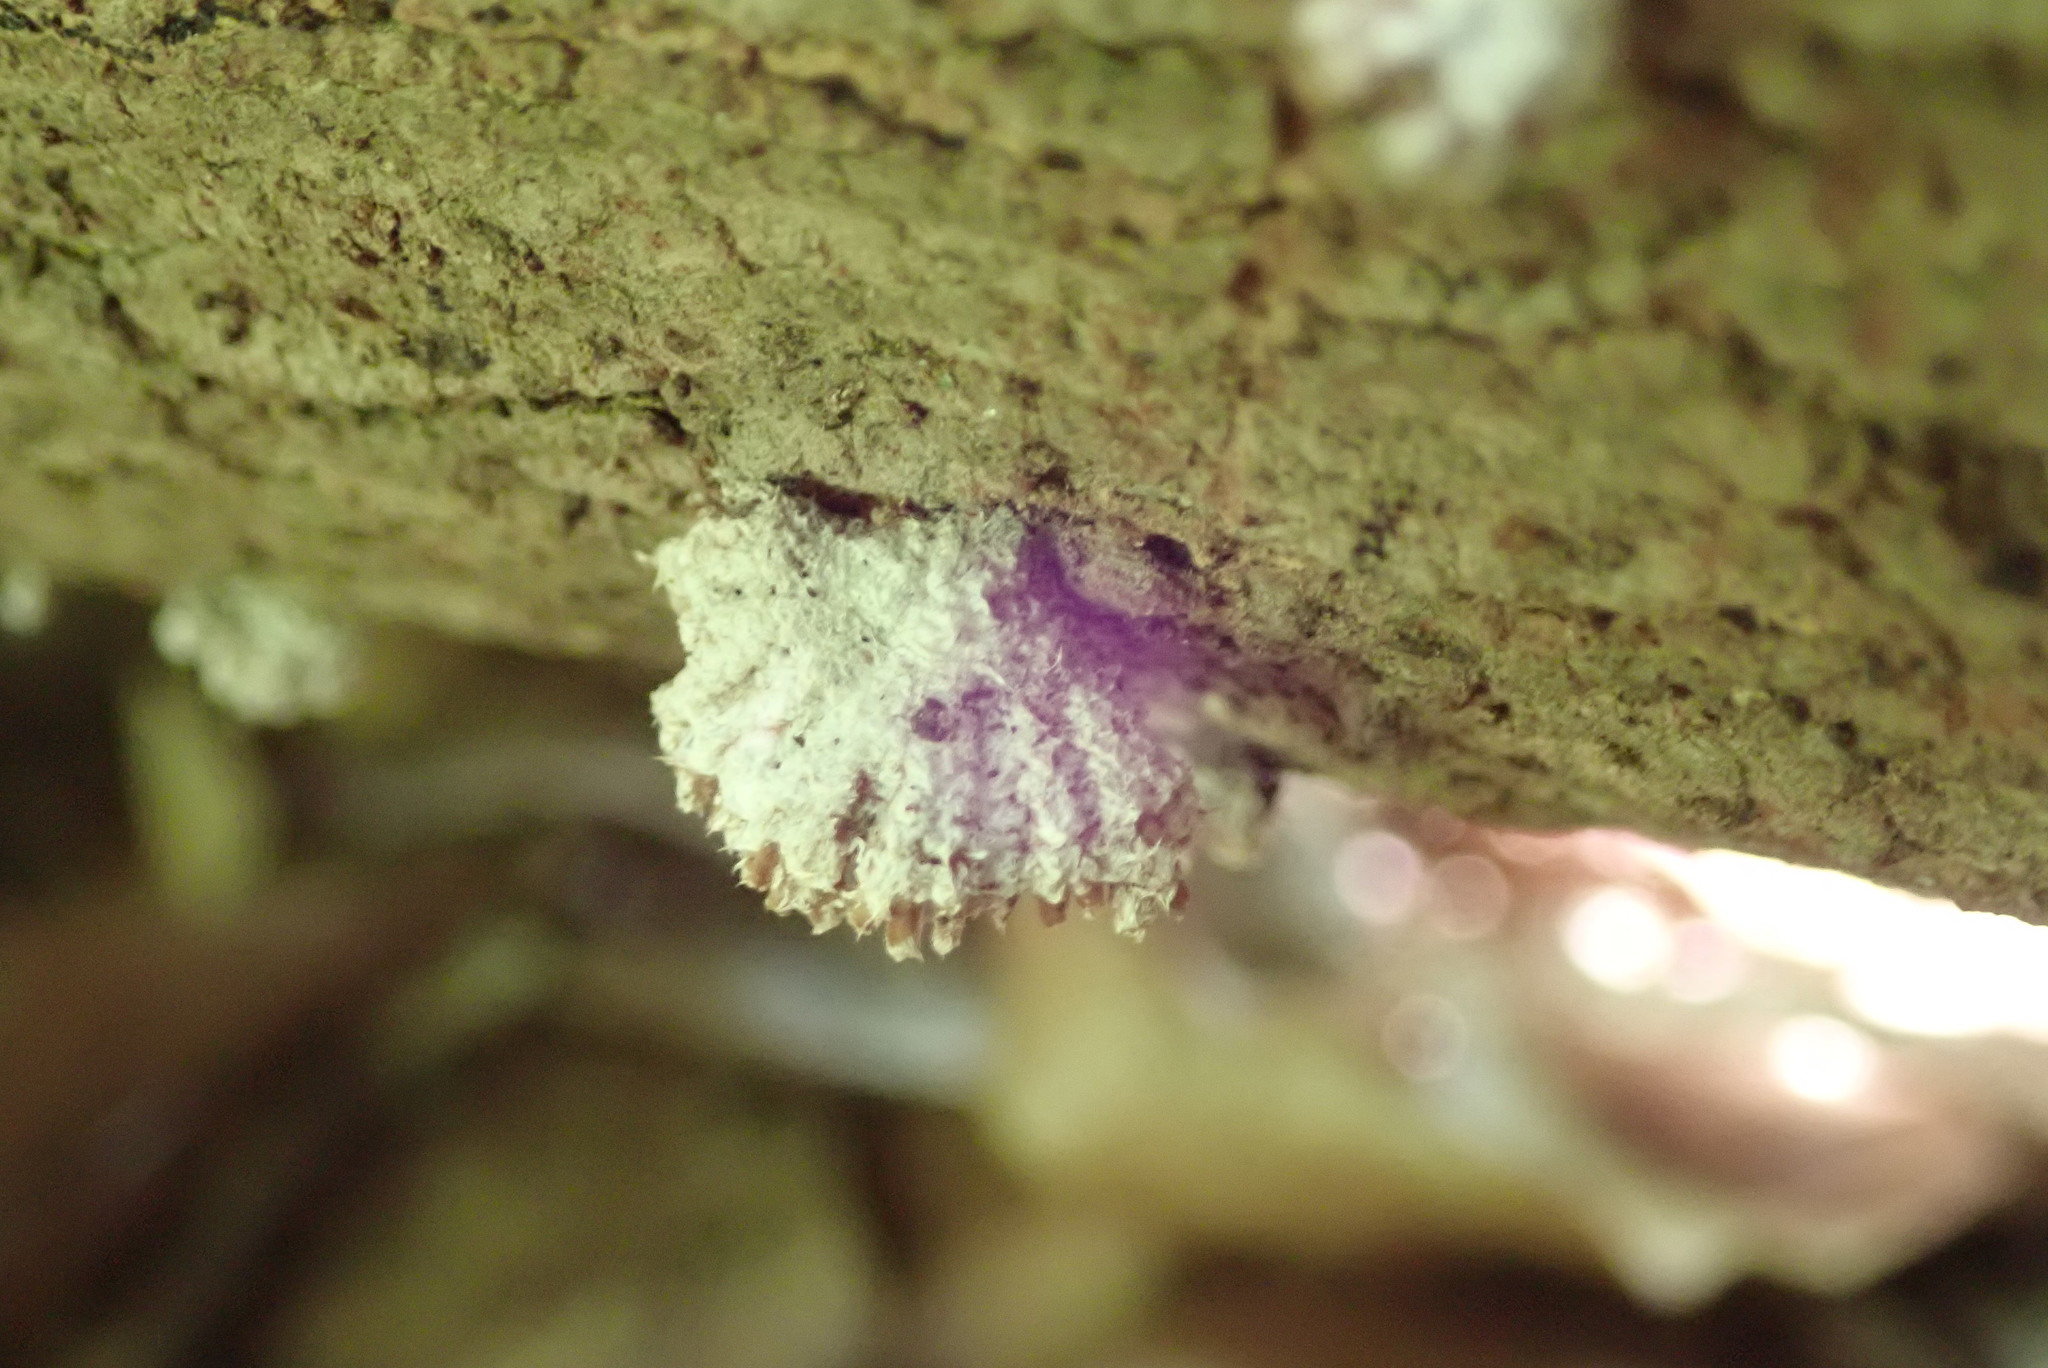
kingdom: Fungi
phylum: Basidiomycota
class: Agaricomycetes
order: Agaricales
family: Schizophyllaceae
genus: Schizophyllum
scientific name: Schizophyllum commune
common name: Common porecrust
